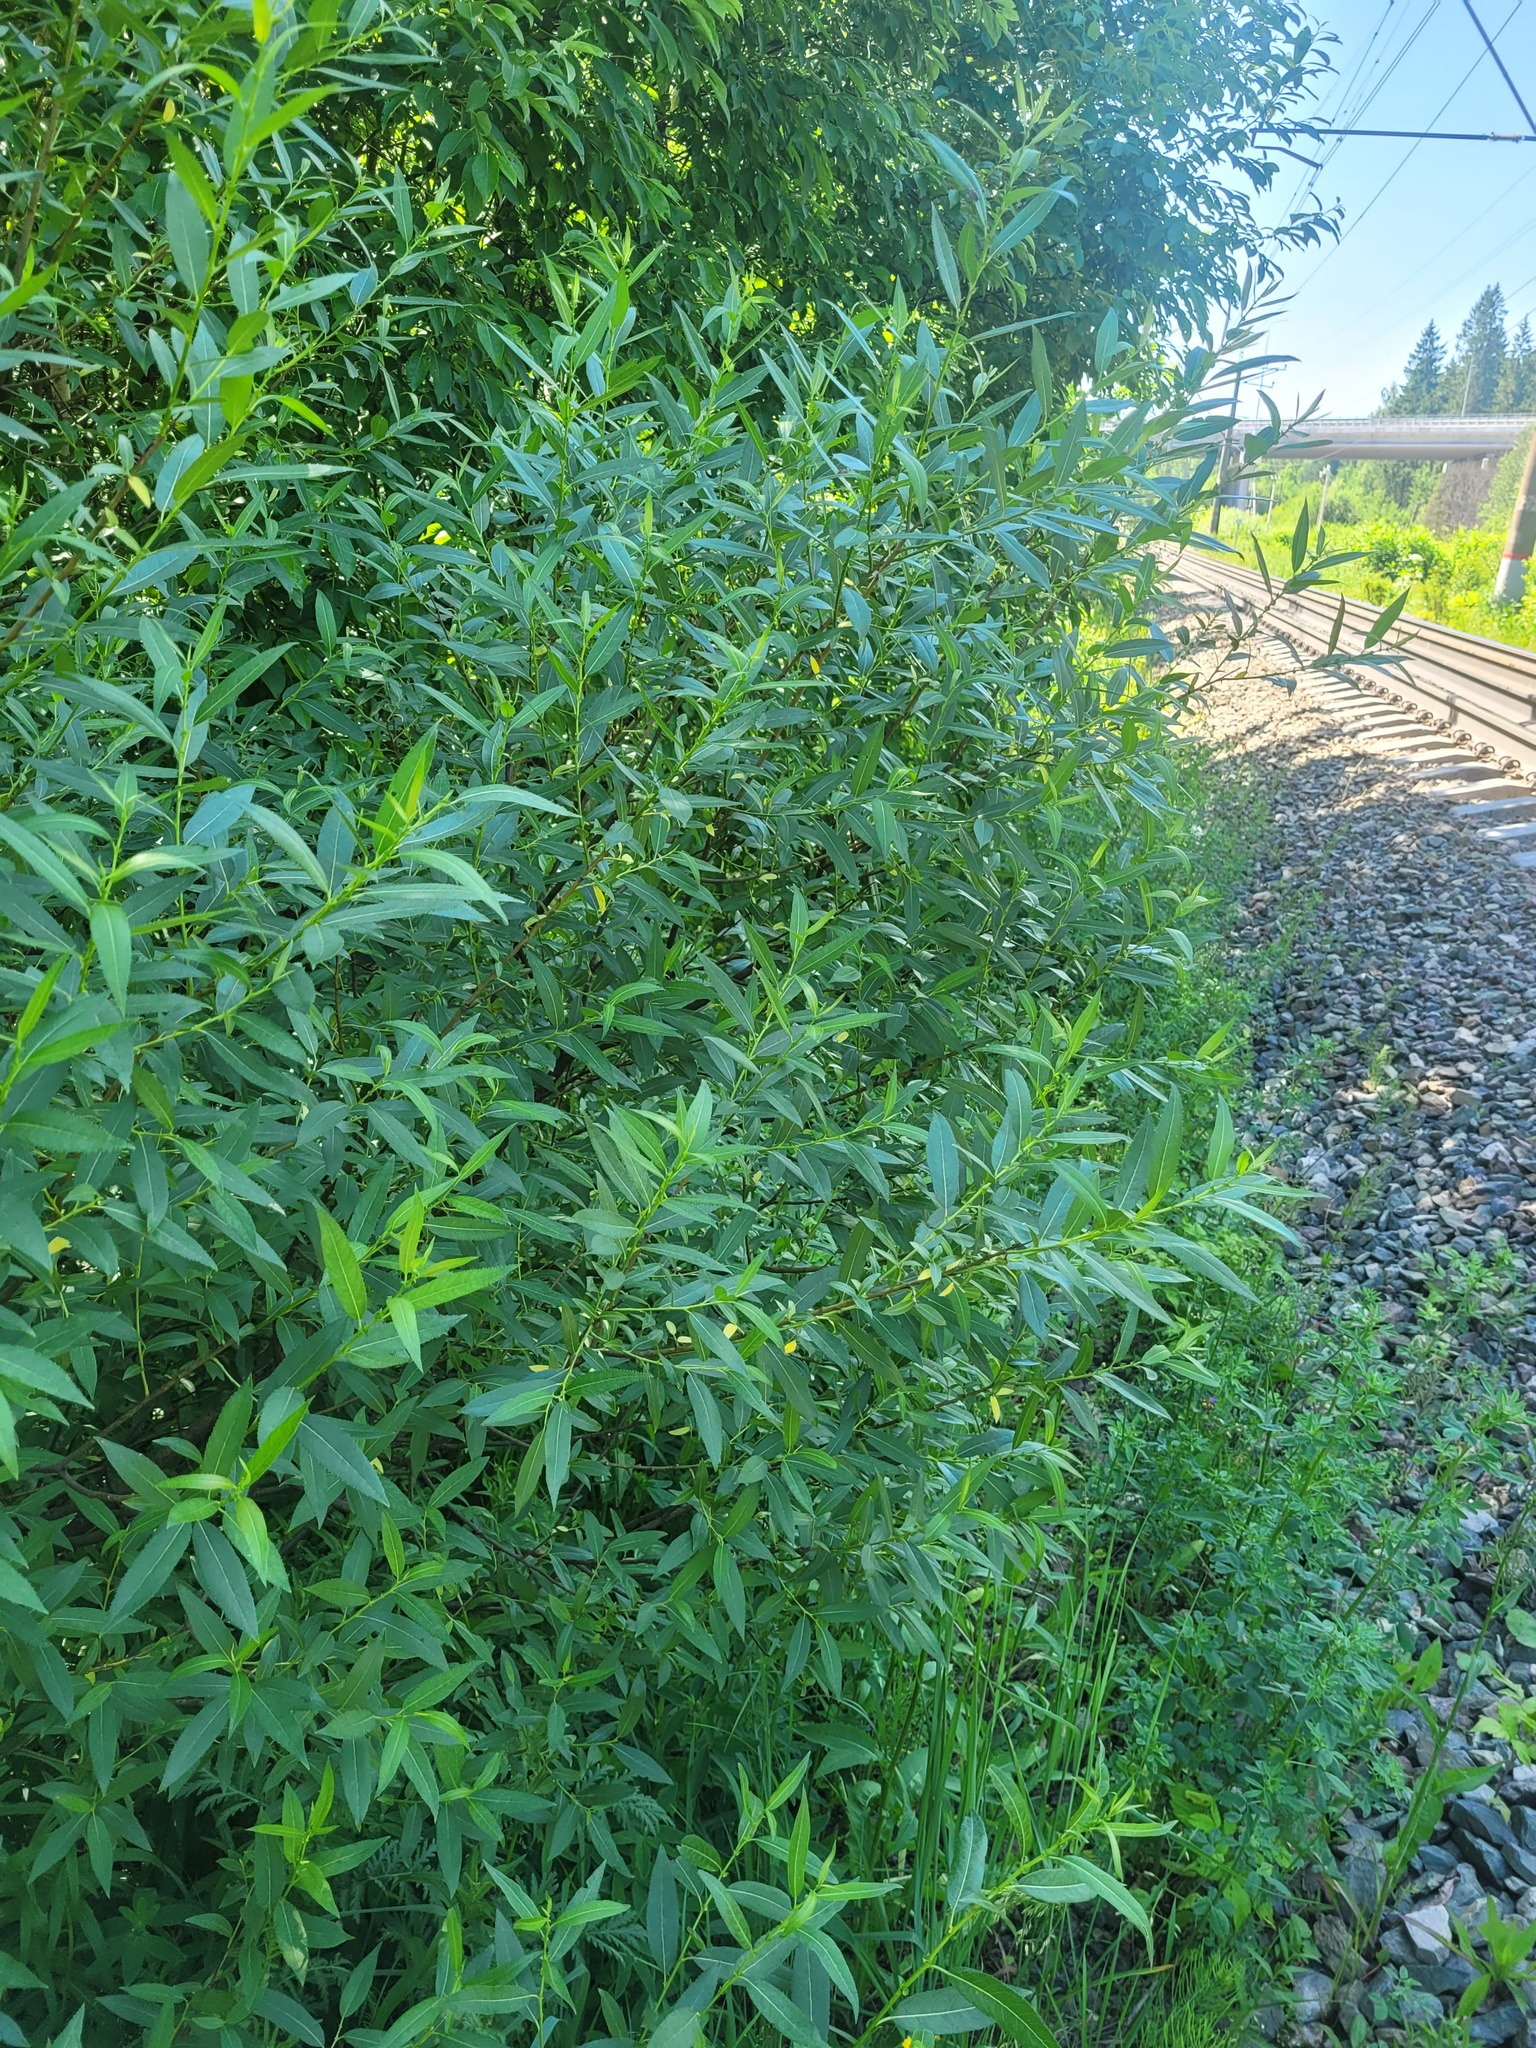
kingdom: Plantae
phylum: Tracheophyta
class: Magnoliopsida
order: Malpighiales
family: Salicaceae
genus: Salix
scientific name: Salix triandra
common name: Almond willow
